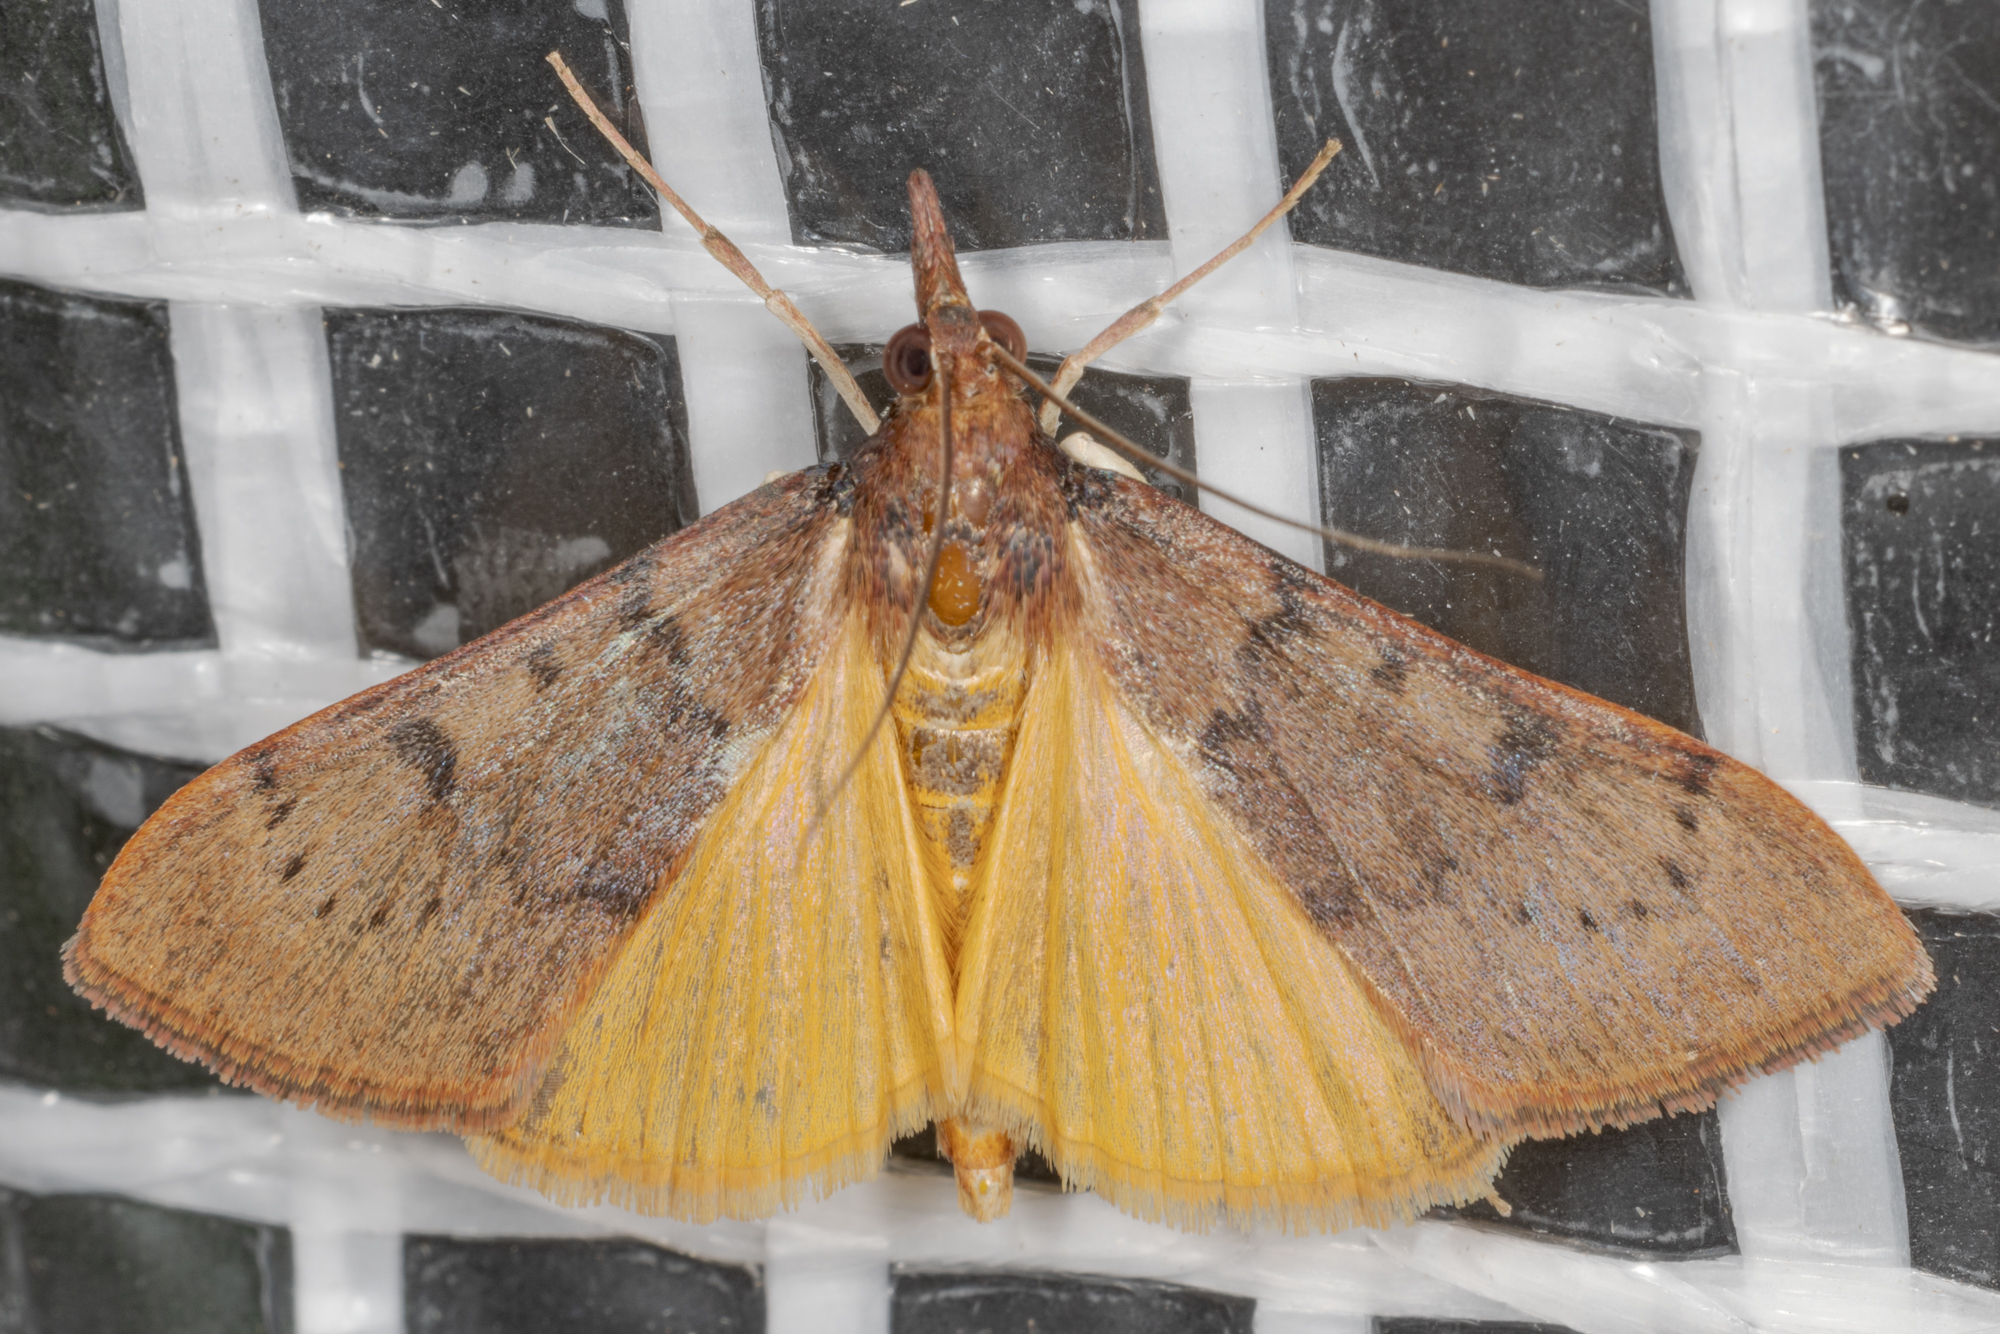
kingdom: Animalia
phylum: Arthropoda
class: Insecta
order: Lepidoptera
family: Crambidae
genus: Uresiphita
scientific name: Uresiphita reversalis
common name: Genista broom moth
